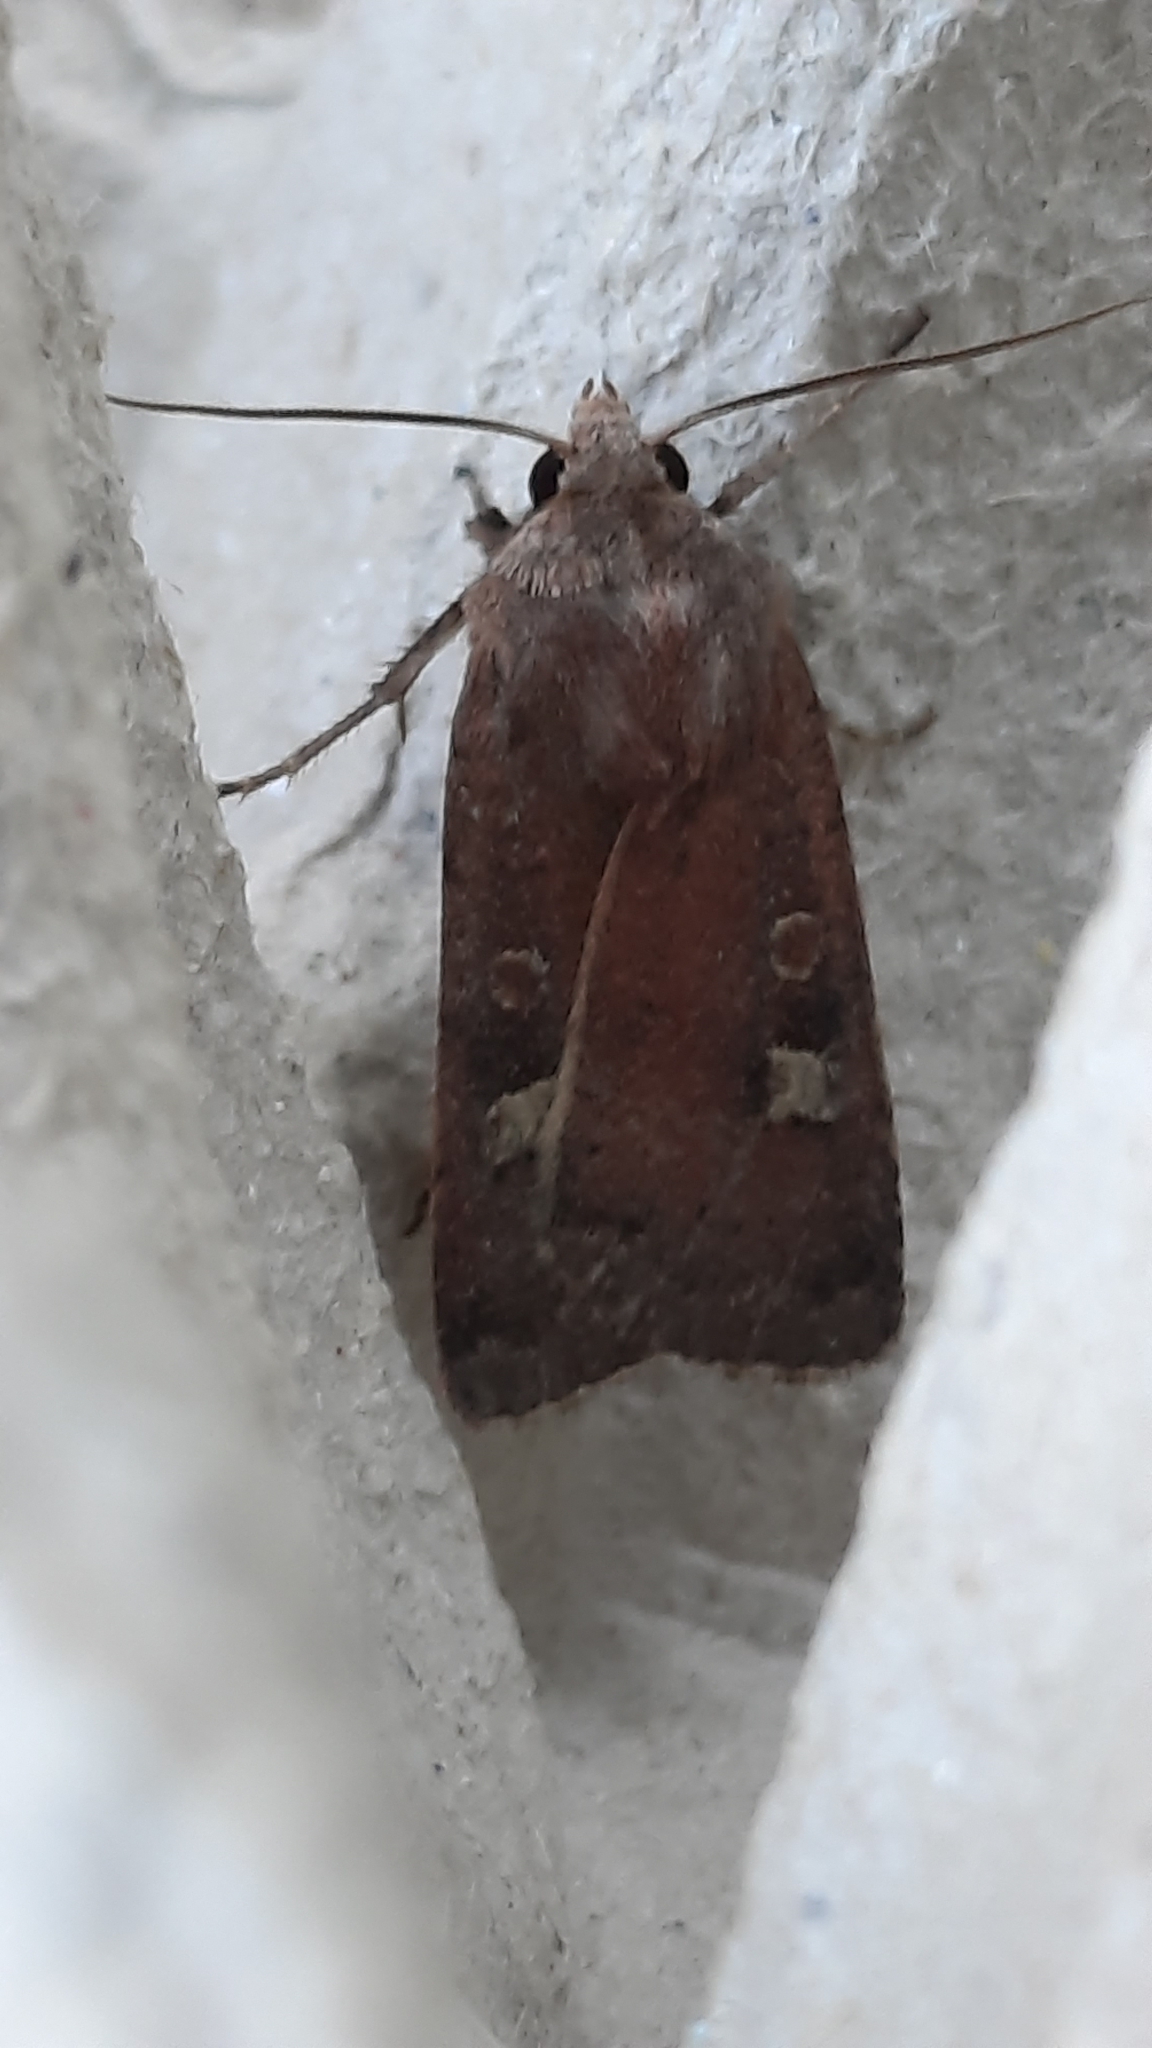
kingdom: Animalia
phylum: Arthropoda
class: Insecta
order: Lepidoptera
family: Noctuidae
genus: Xestia
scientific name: Xestia xanthographa
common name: Square-spot rustic
